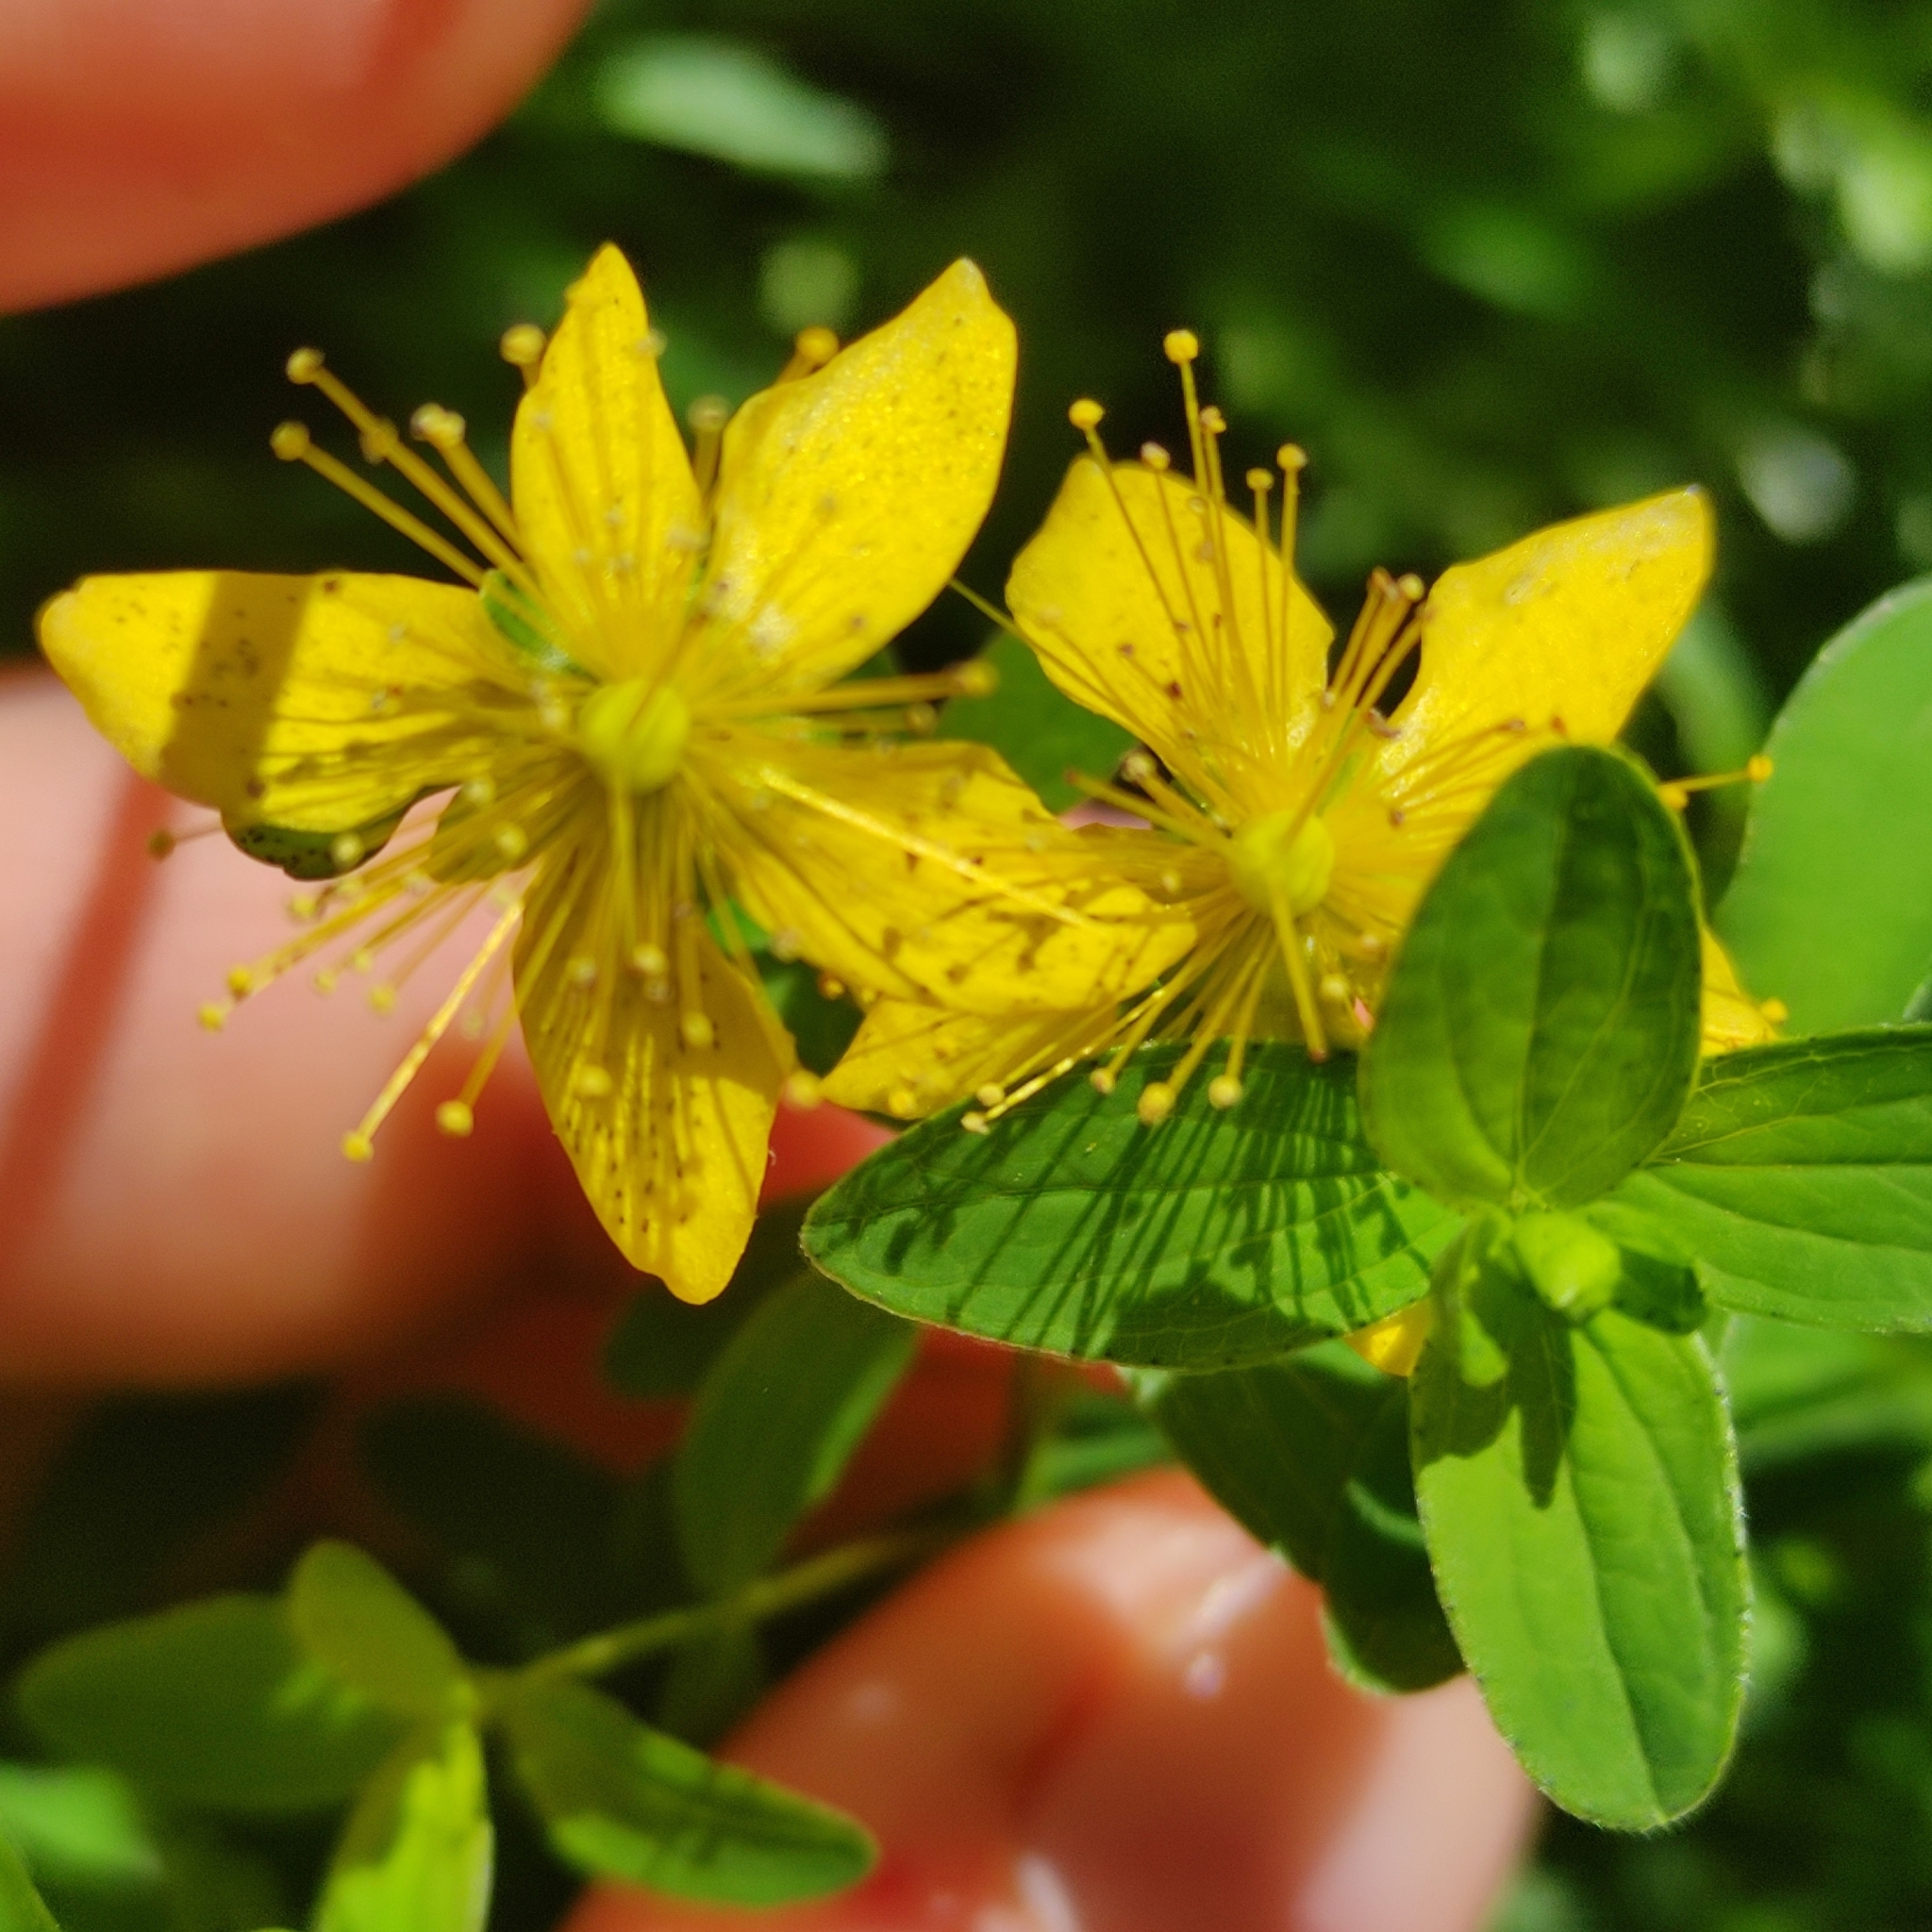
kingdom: Plantae
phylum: Tracheophyta
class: Magnoliopsida
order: Malpighiales
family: Hypericaceae
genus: Hypericum
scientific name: Hypericum maculatum
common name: Imperforate st. john's-wort
